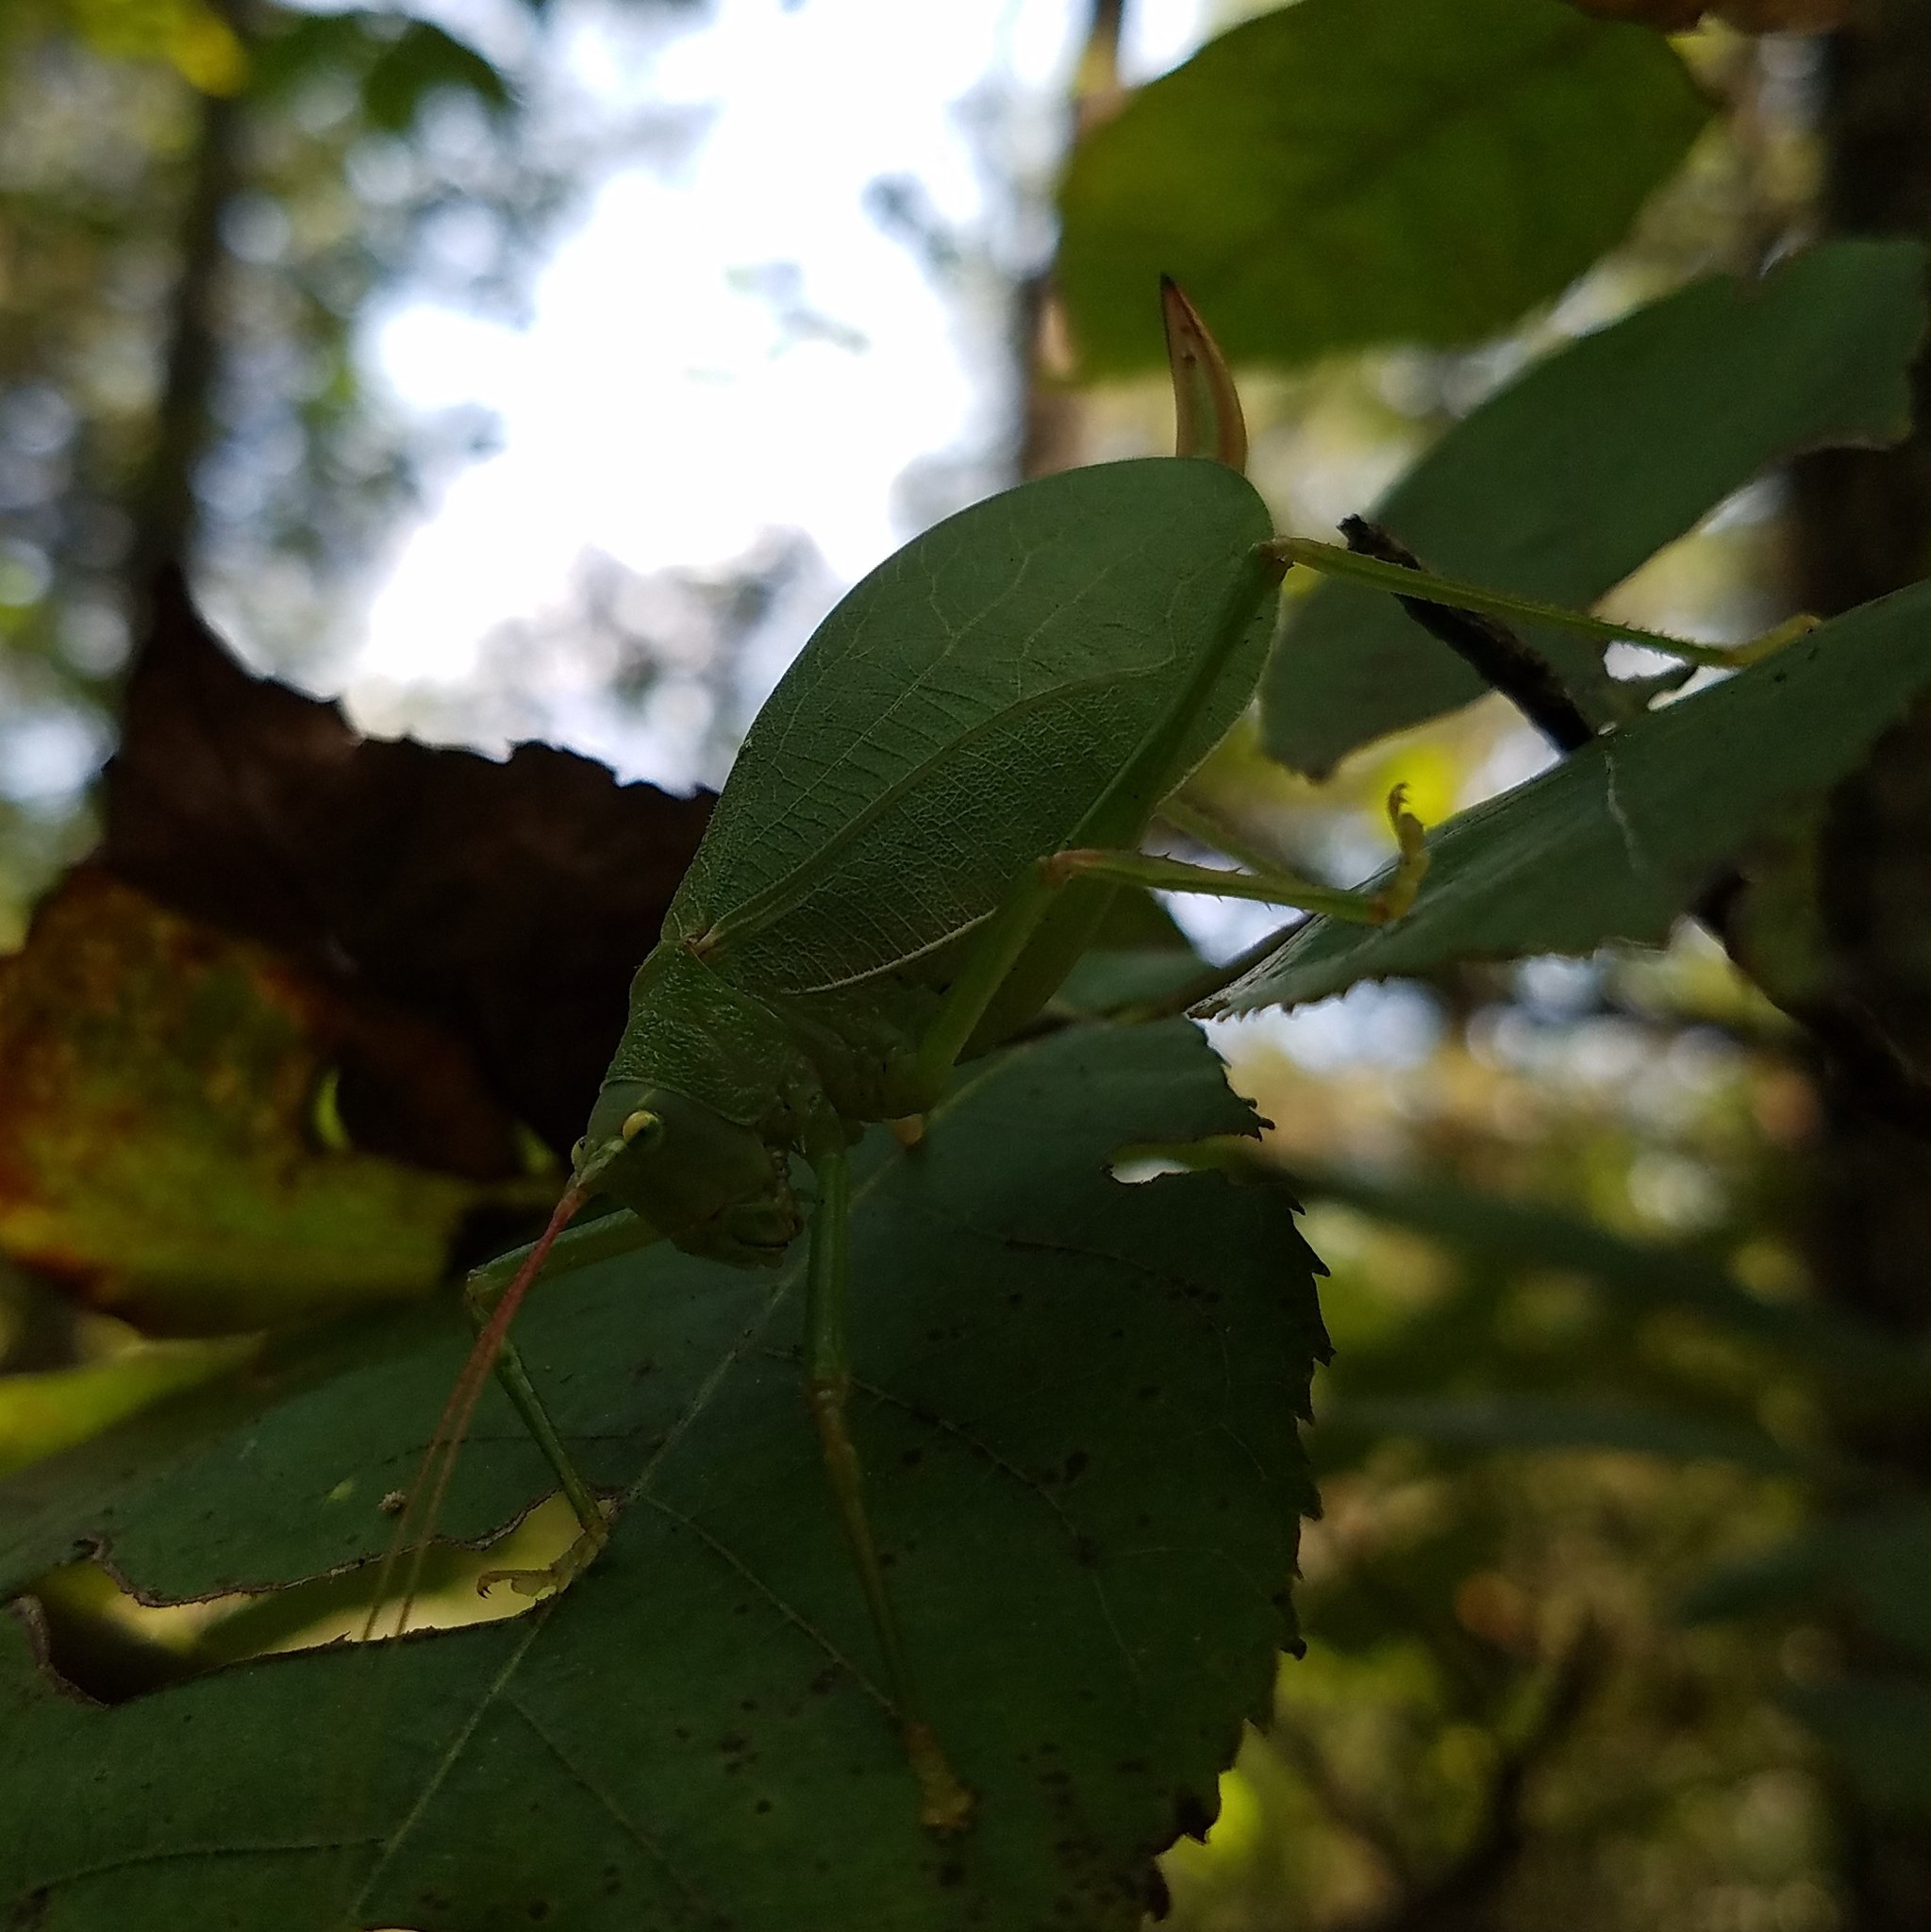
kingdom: Animalia
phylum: Arthropoda
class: Insecta
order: Orthoptera
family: Tettigoniidae
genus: Pterophylla
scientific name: Pterophylla camellifolia
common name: Common true katydid
